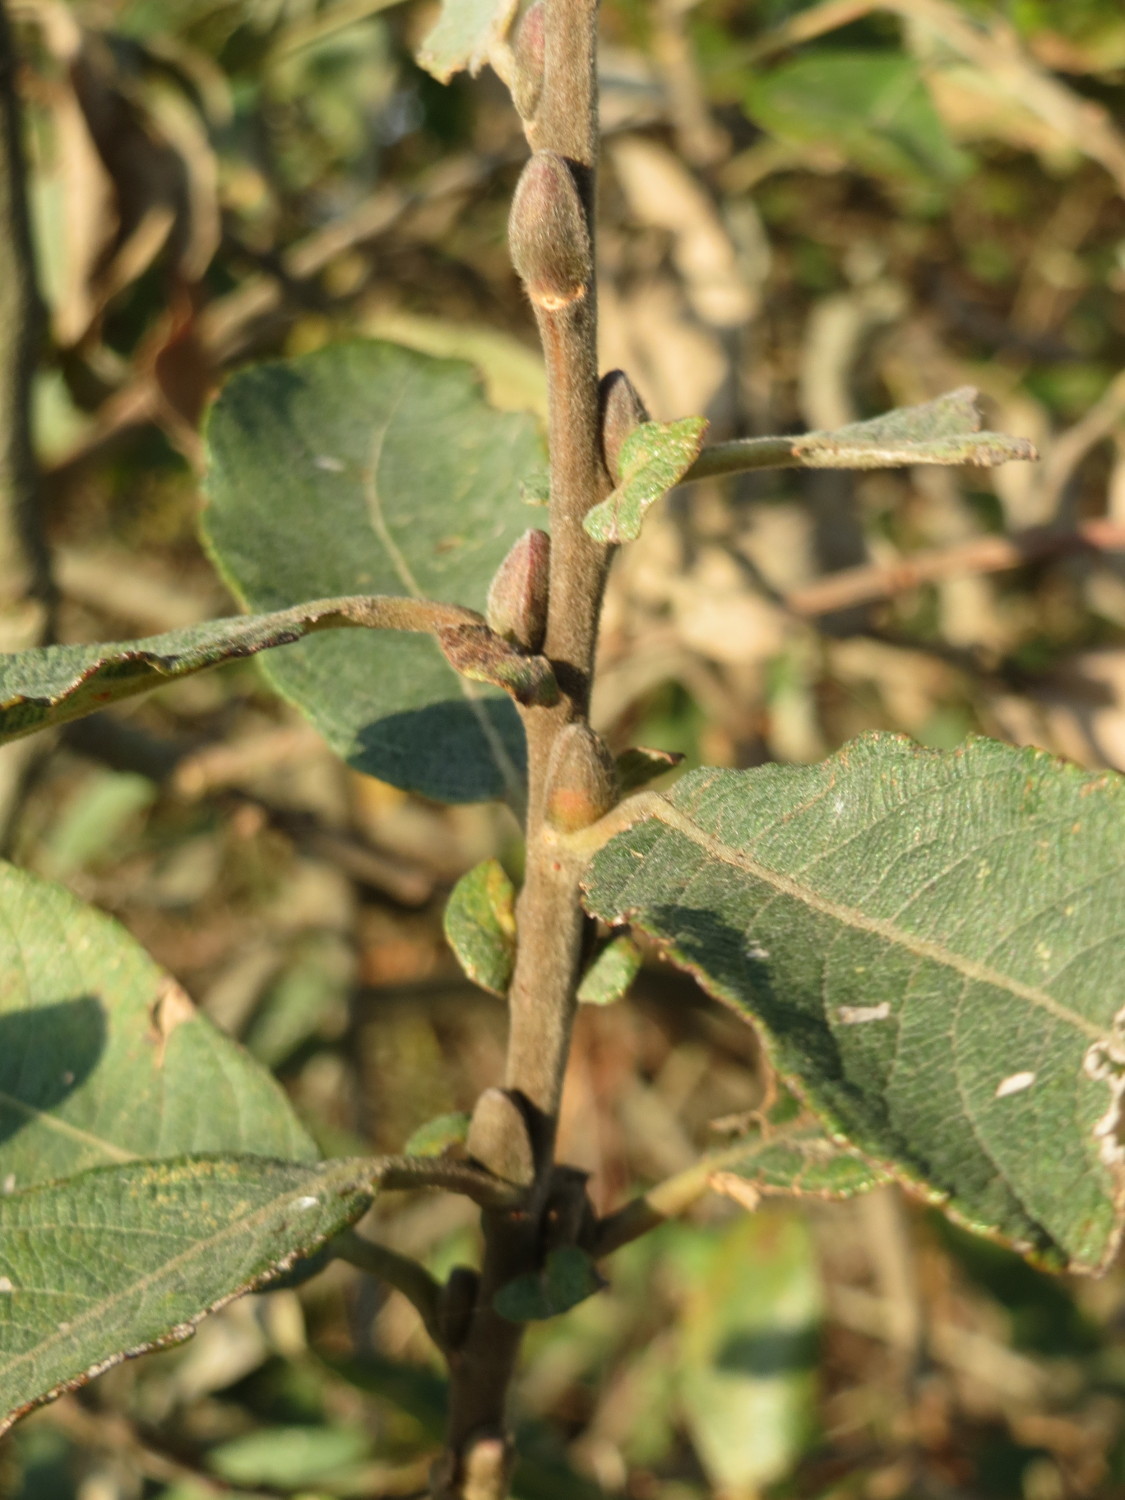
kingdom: Plantae
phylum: Tracheophyta
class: Magnoliopsida
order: Malpighiales
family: Salicaceae
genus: Salix
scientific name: Salix cinerea
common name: Common sallow
